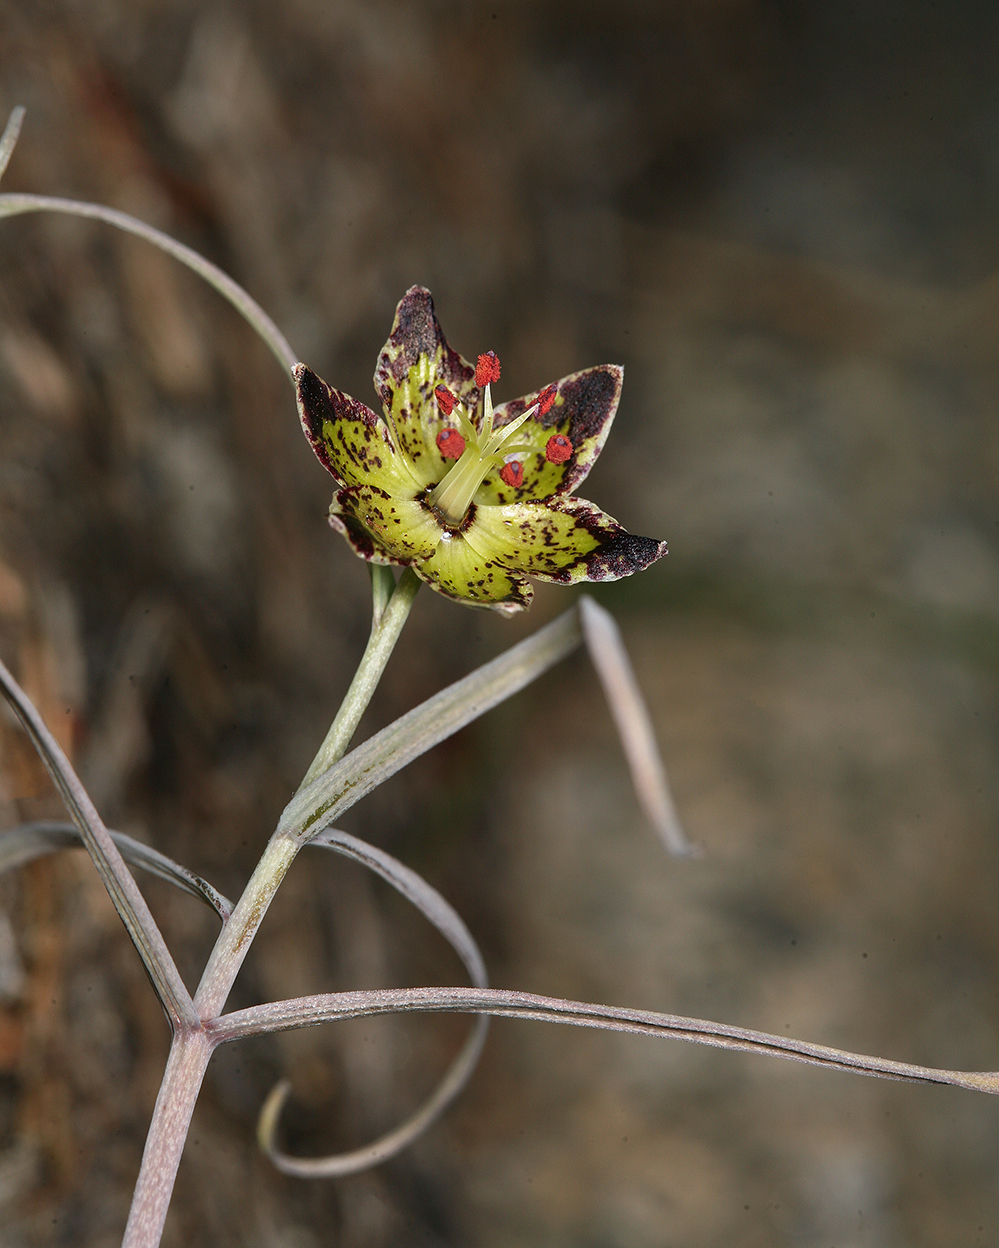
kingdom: Plantae
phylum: Tracheophyta
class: Liliopsida
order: Liliales
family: Liliaceae
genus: Fritillaria
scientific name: Fritillaria pinetorum
